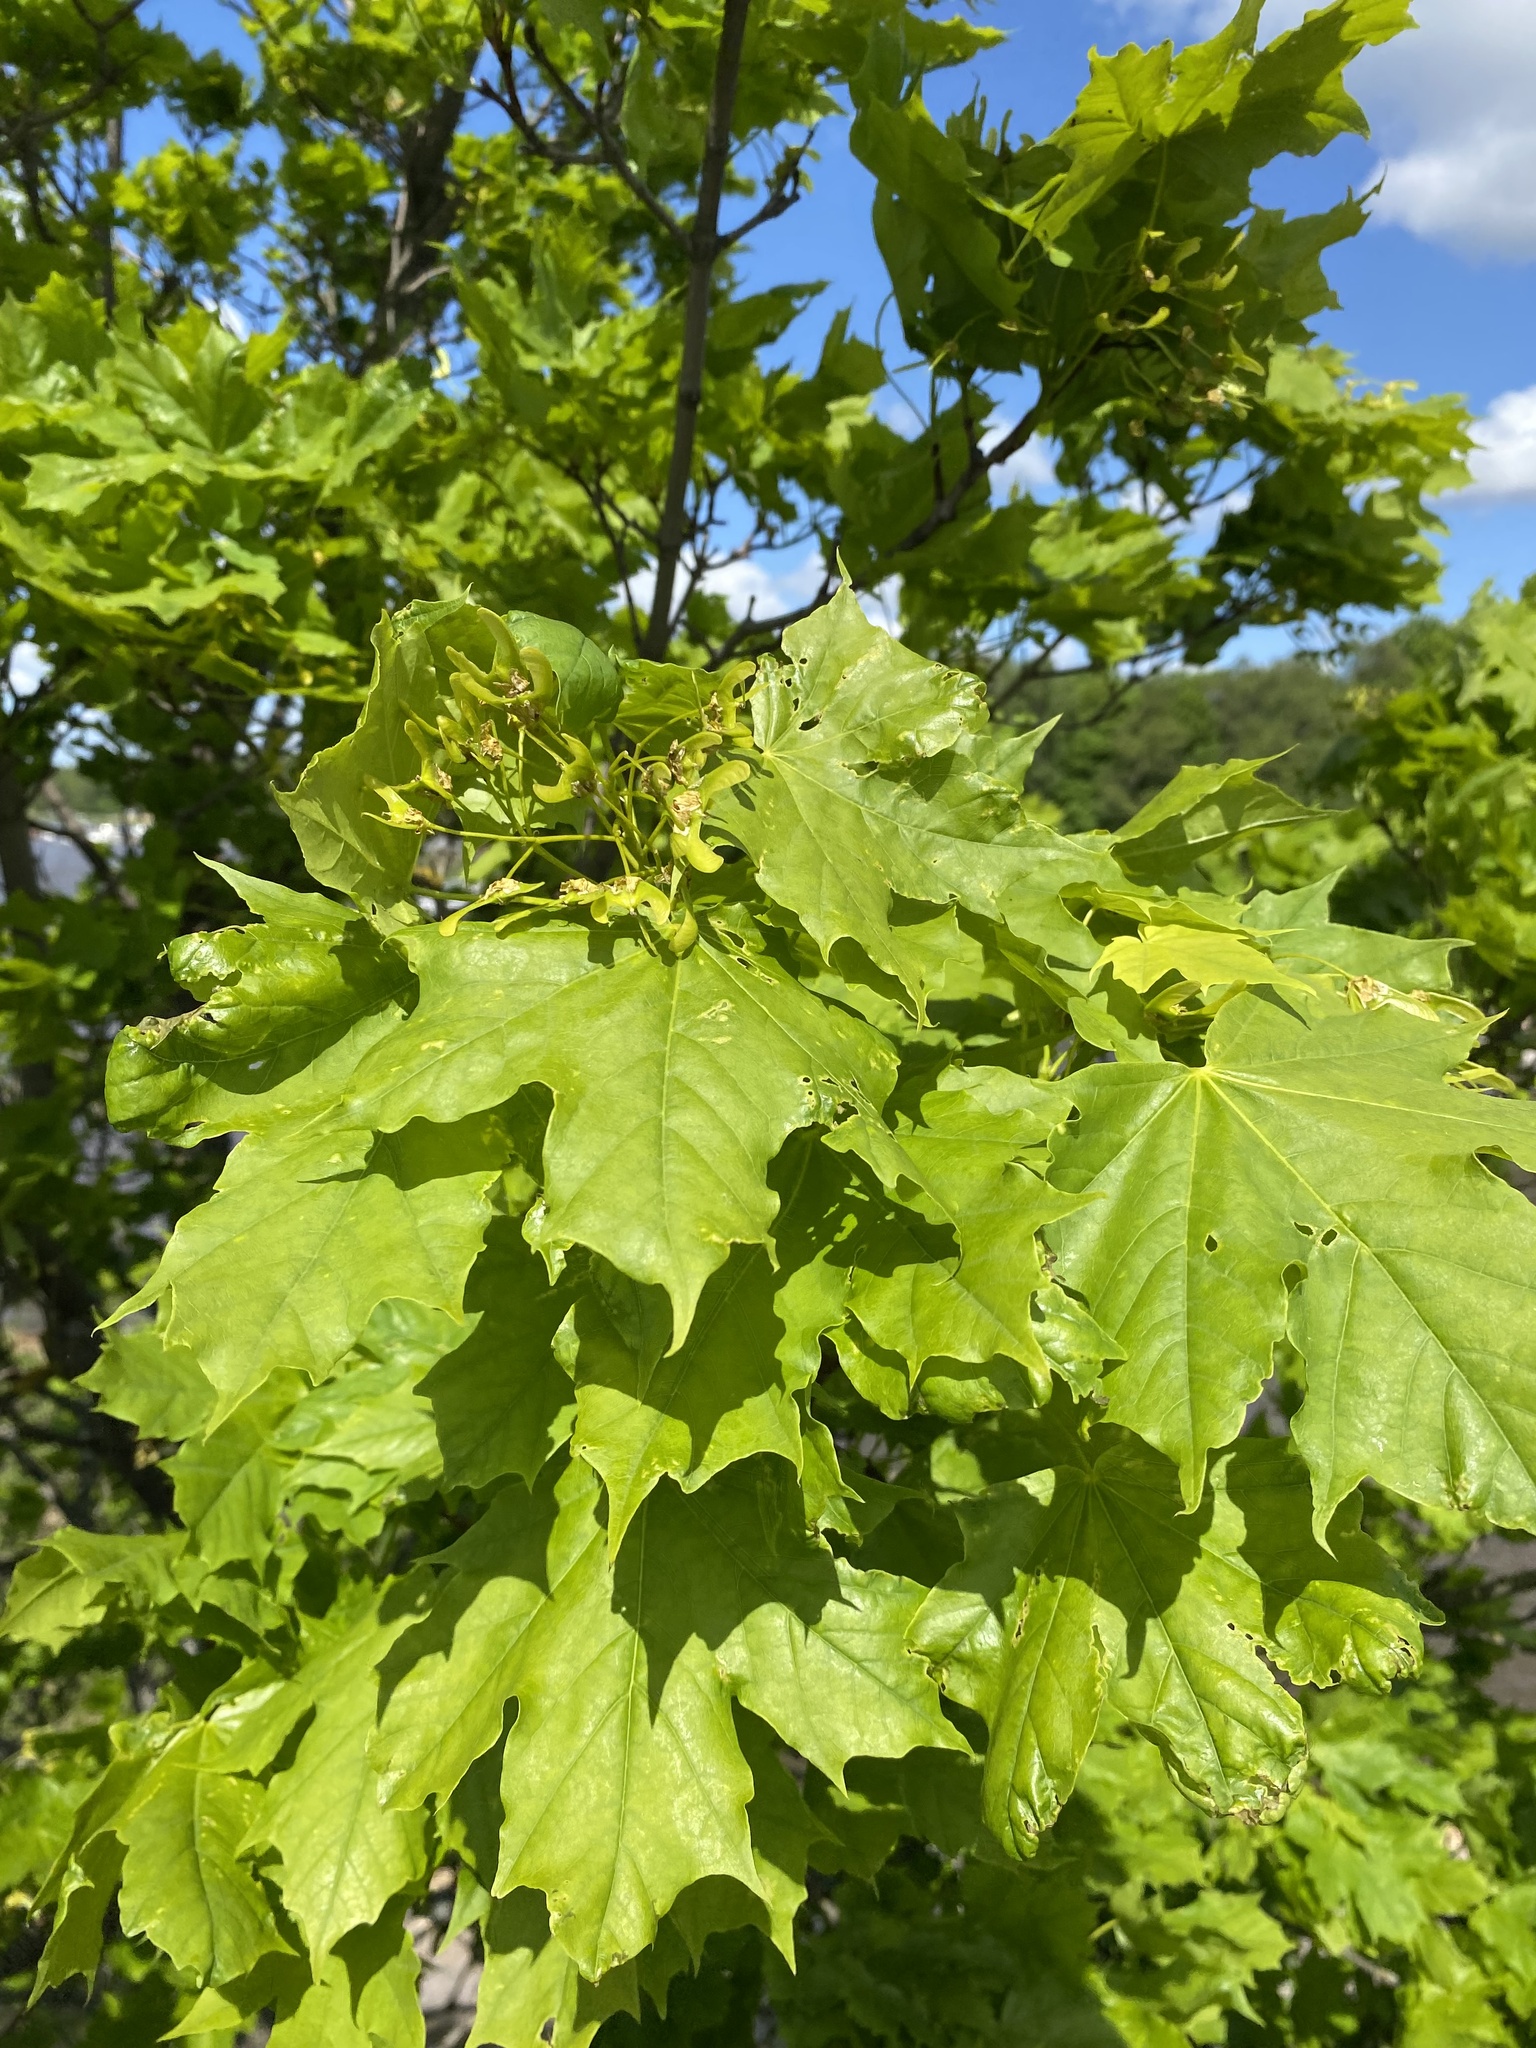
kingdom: Plantae
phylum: Tracheophyta
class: Magnoliopsida
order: Sapindales
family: Sapindaceae
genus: Acer
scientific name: Acer platanoides
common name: Norway maple
